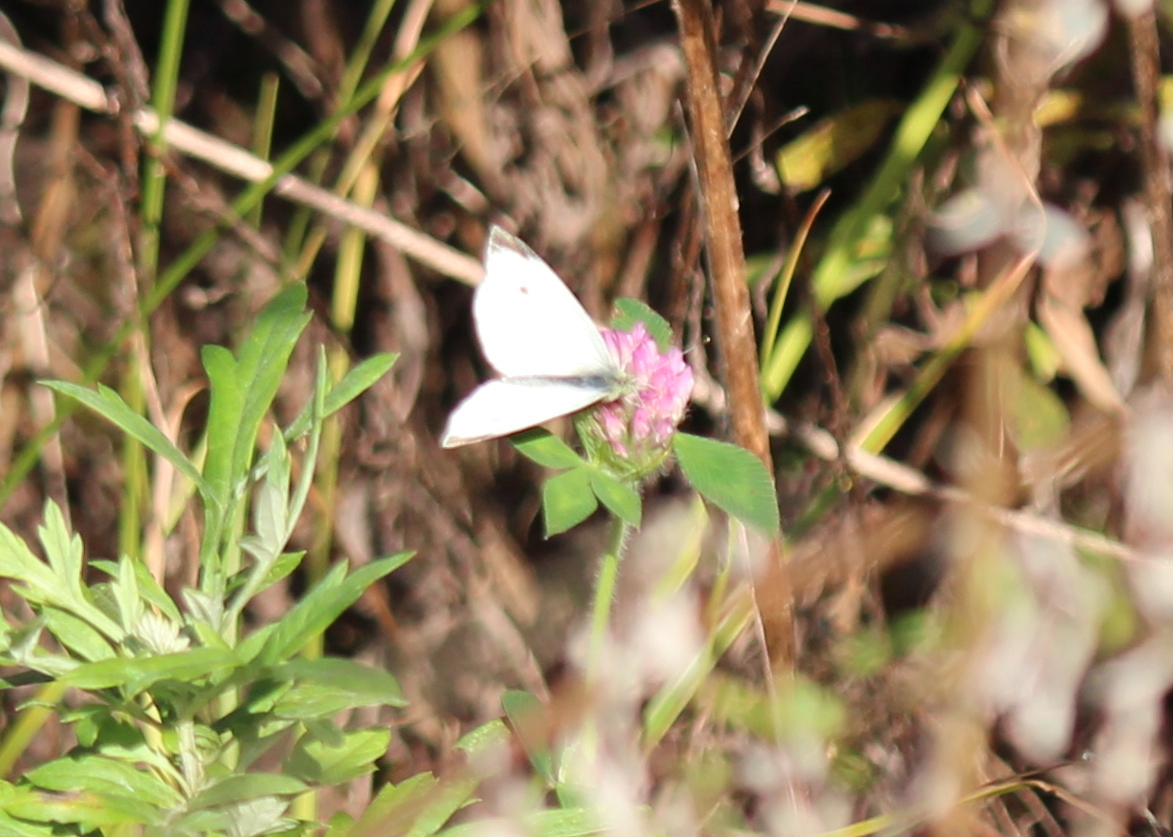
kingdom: Animalia
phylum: Arthropoda
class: Insecta
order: Lepidoptera
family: Pieridae
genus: Pieris
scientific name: Pieris rapae
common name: Small white
